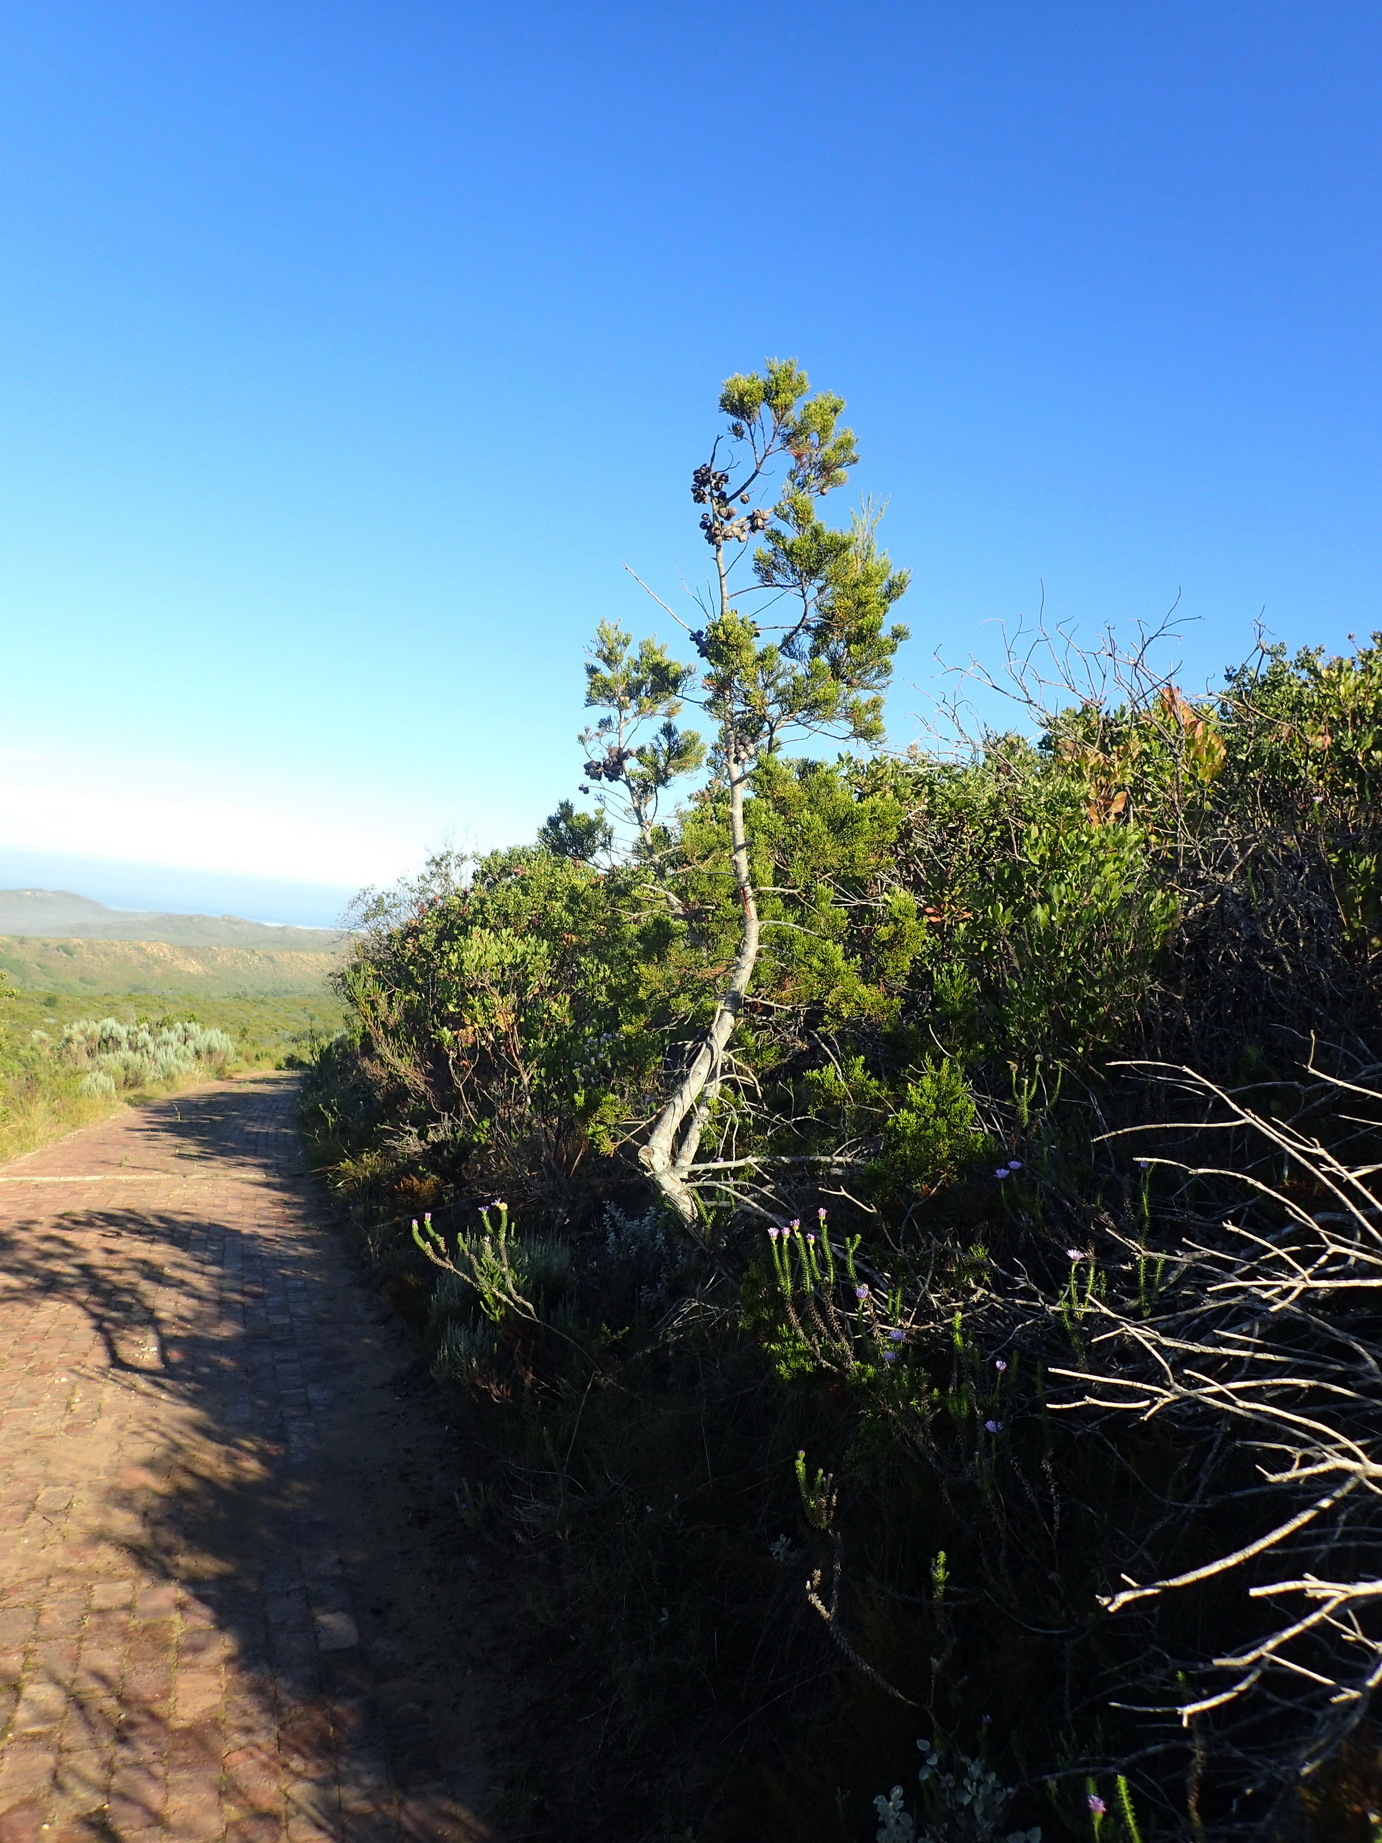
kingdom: Plantae
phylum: Tracheophyta
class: Pinopsida
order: Pinales
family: Cupressaceae
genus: Widdringtonia
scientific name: Widdringtonia nodiflora
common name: Cape cypress
